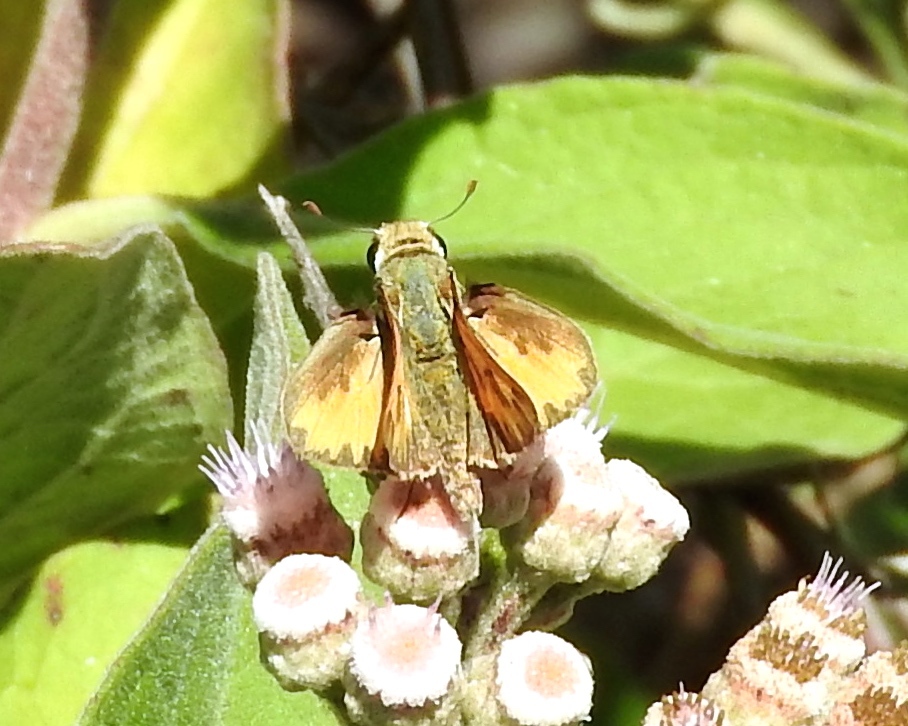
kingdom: Animalia
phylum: Arthropoda
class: Insecta
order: Lepidoptera
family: Hesperiidae
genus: Hylephila
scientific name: Hylephila phyleus
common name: Fiery skipper
